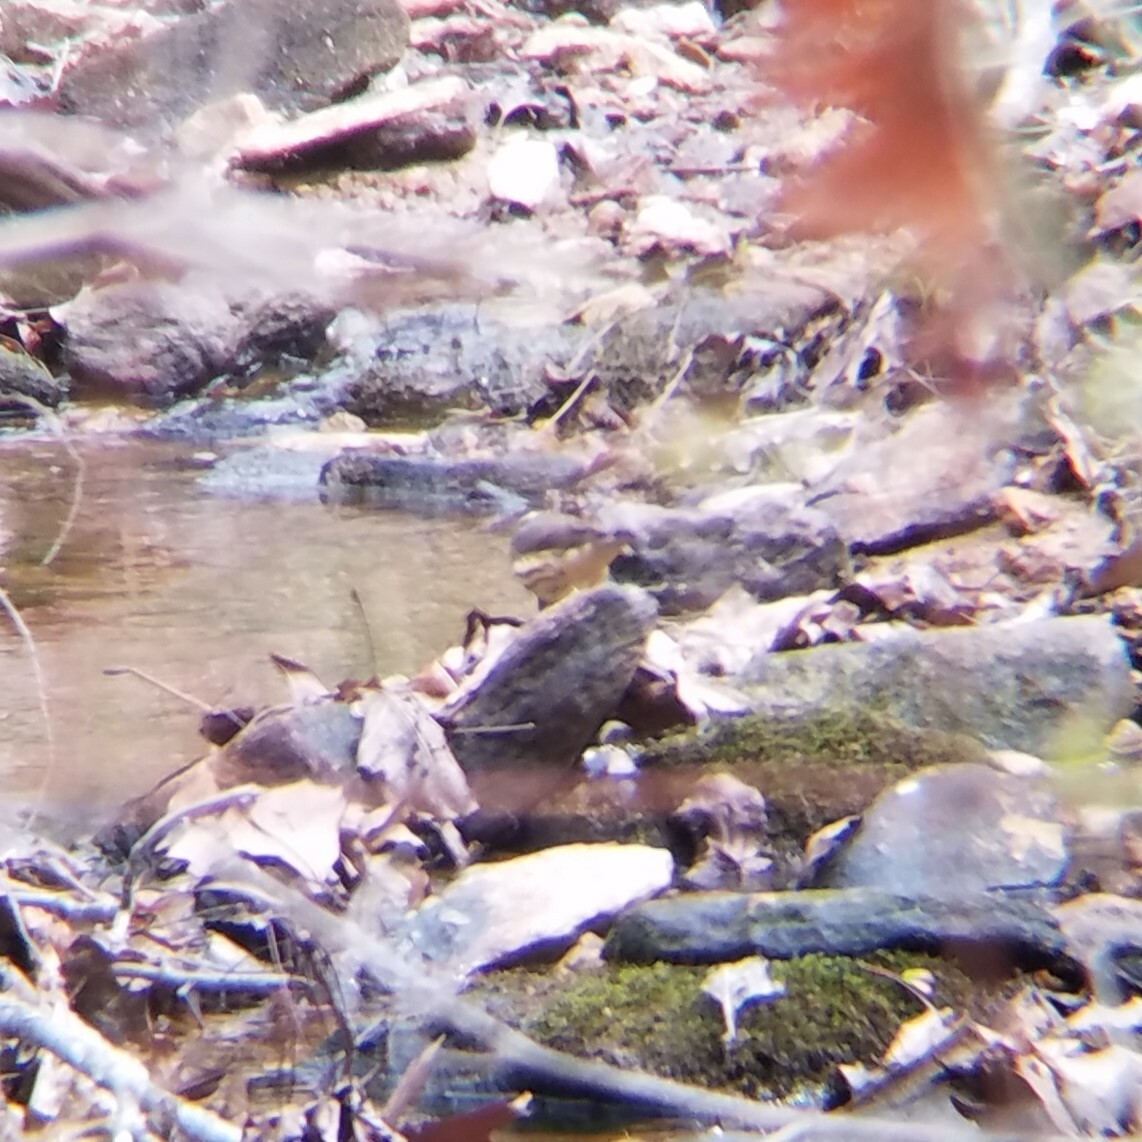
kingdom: Animalia
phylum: Chordata
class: Aves
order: Passeriformes
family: Parulidae
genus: Parkesia
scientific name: Parkesia motacilla
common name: Louisiana waterthrush
